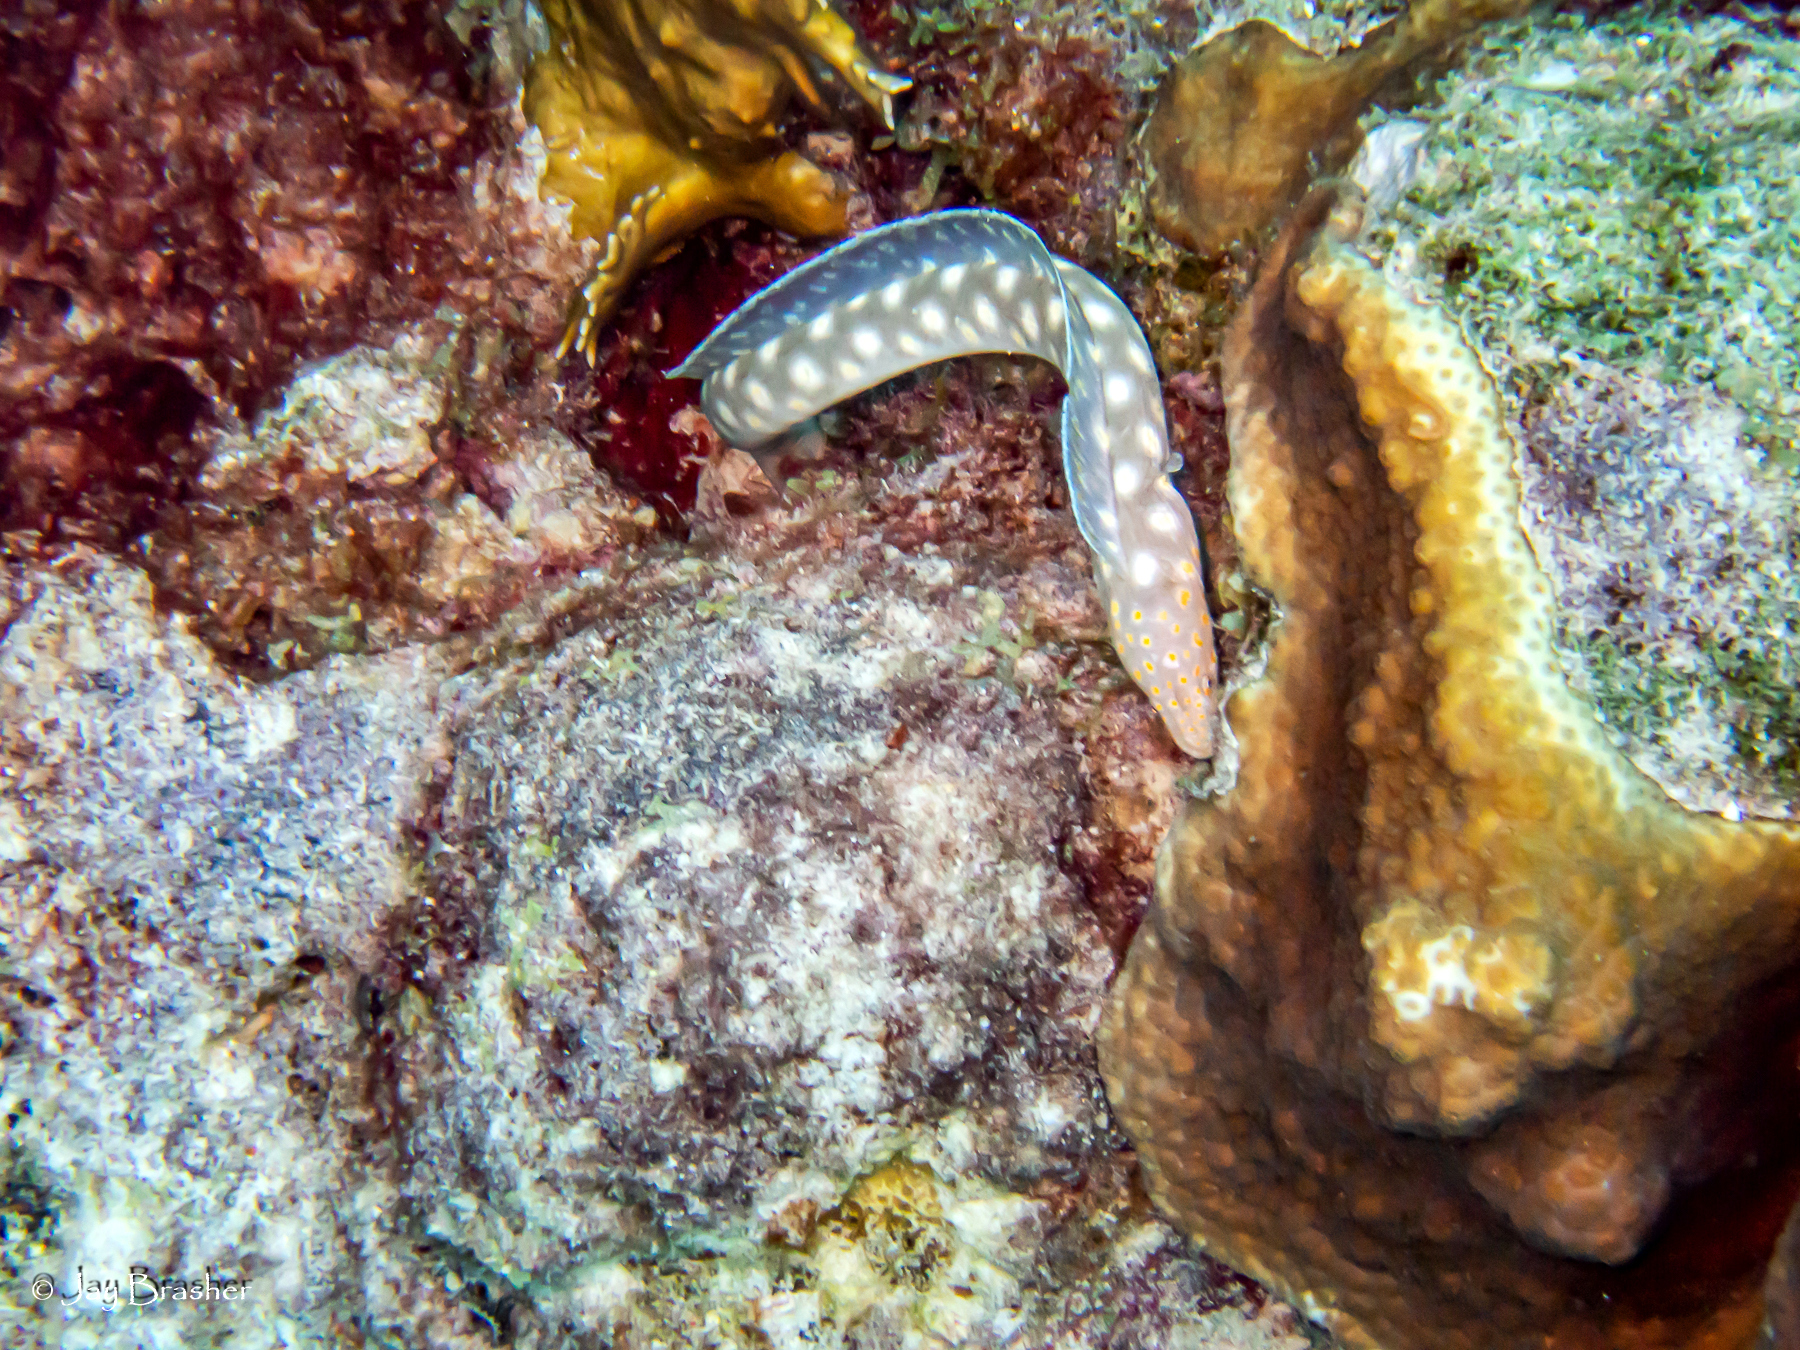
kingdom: Animalia
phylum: Chordata
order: Anguilliformes
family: Ophichthidae
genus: Myrichthys
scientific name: Myrichthys breviceps
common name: Sharptail eel
